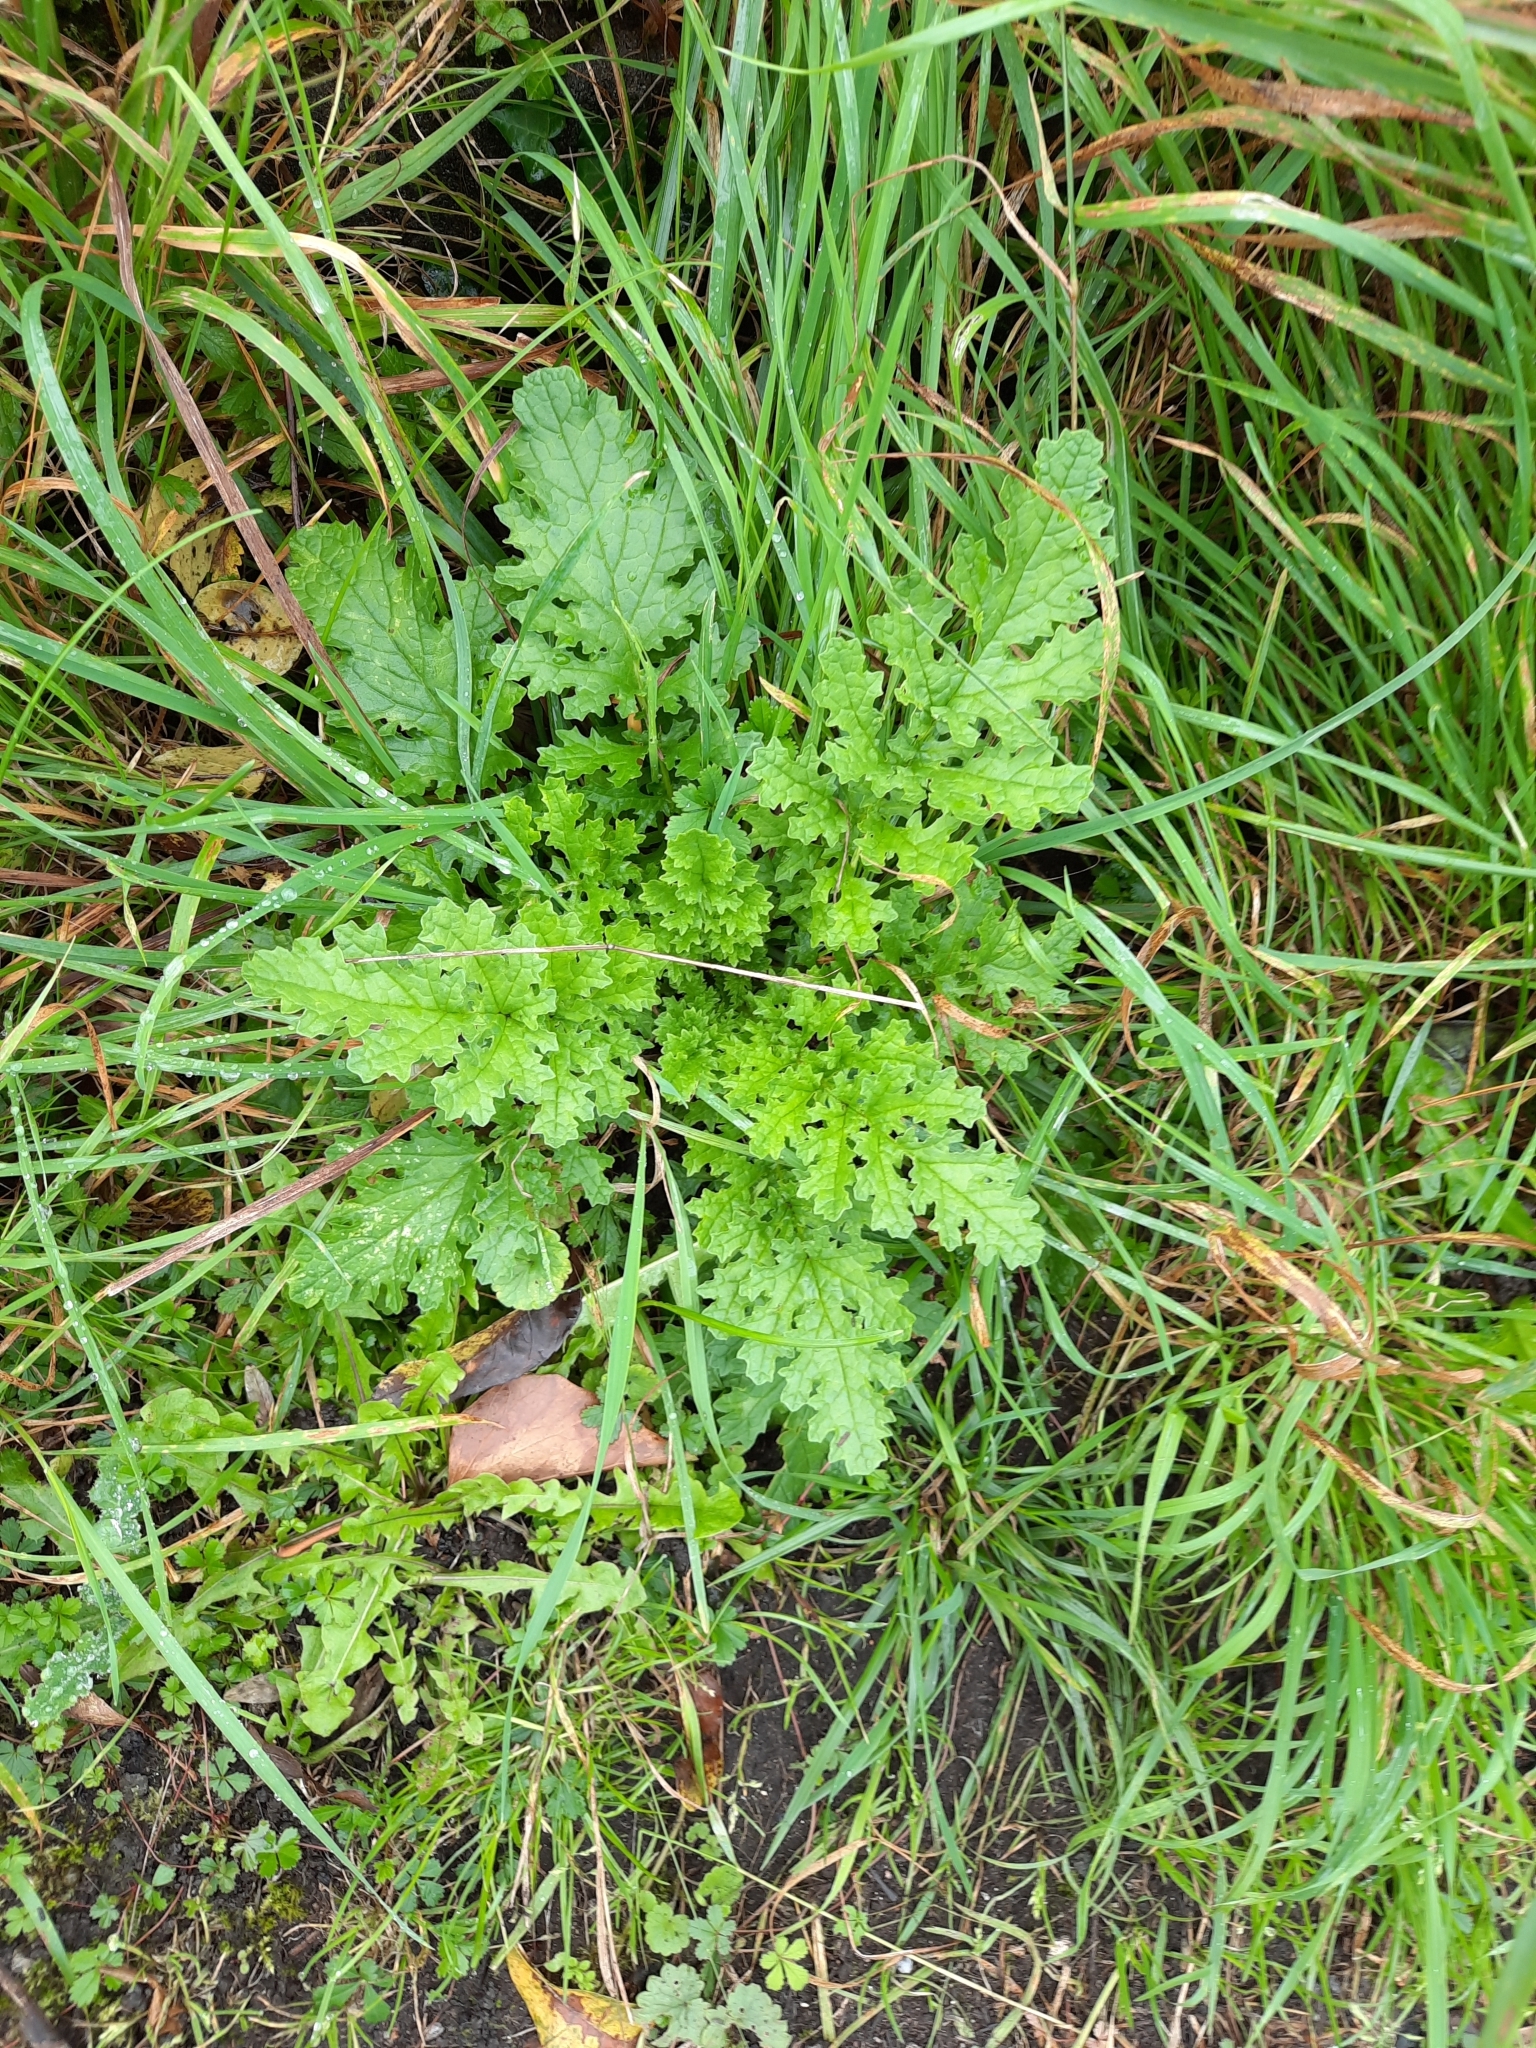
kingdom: Plantae
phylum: Tracheophyta
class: Magnoliopsida
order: Asterales
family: Asteraceae
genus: Jacobaea
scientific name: Jacobaea vulgaris
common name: Stinking willie
